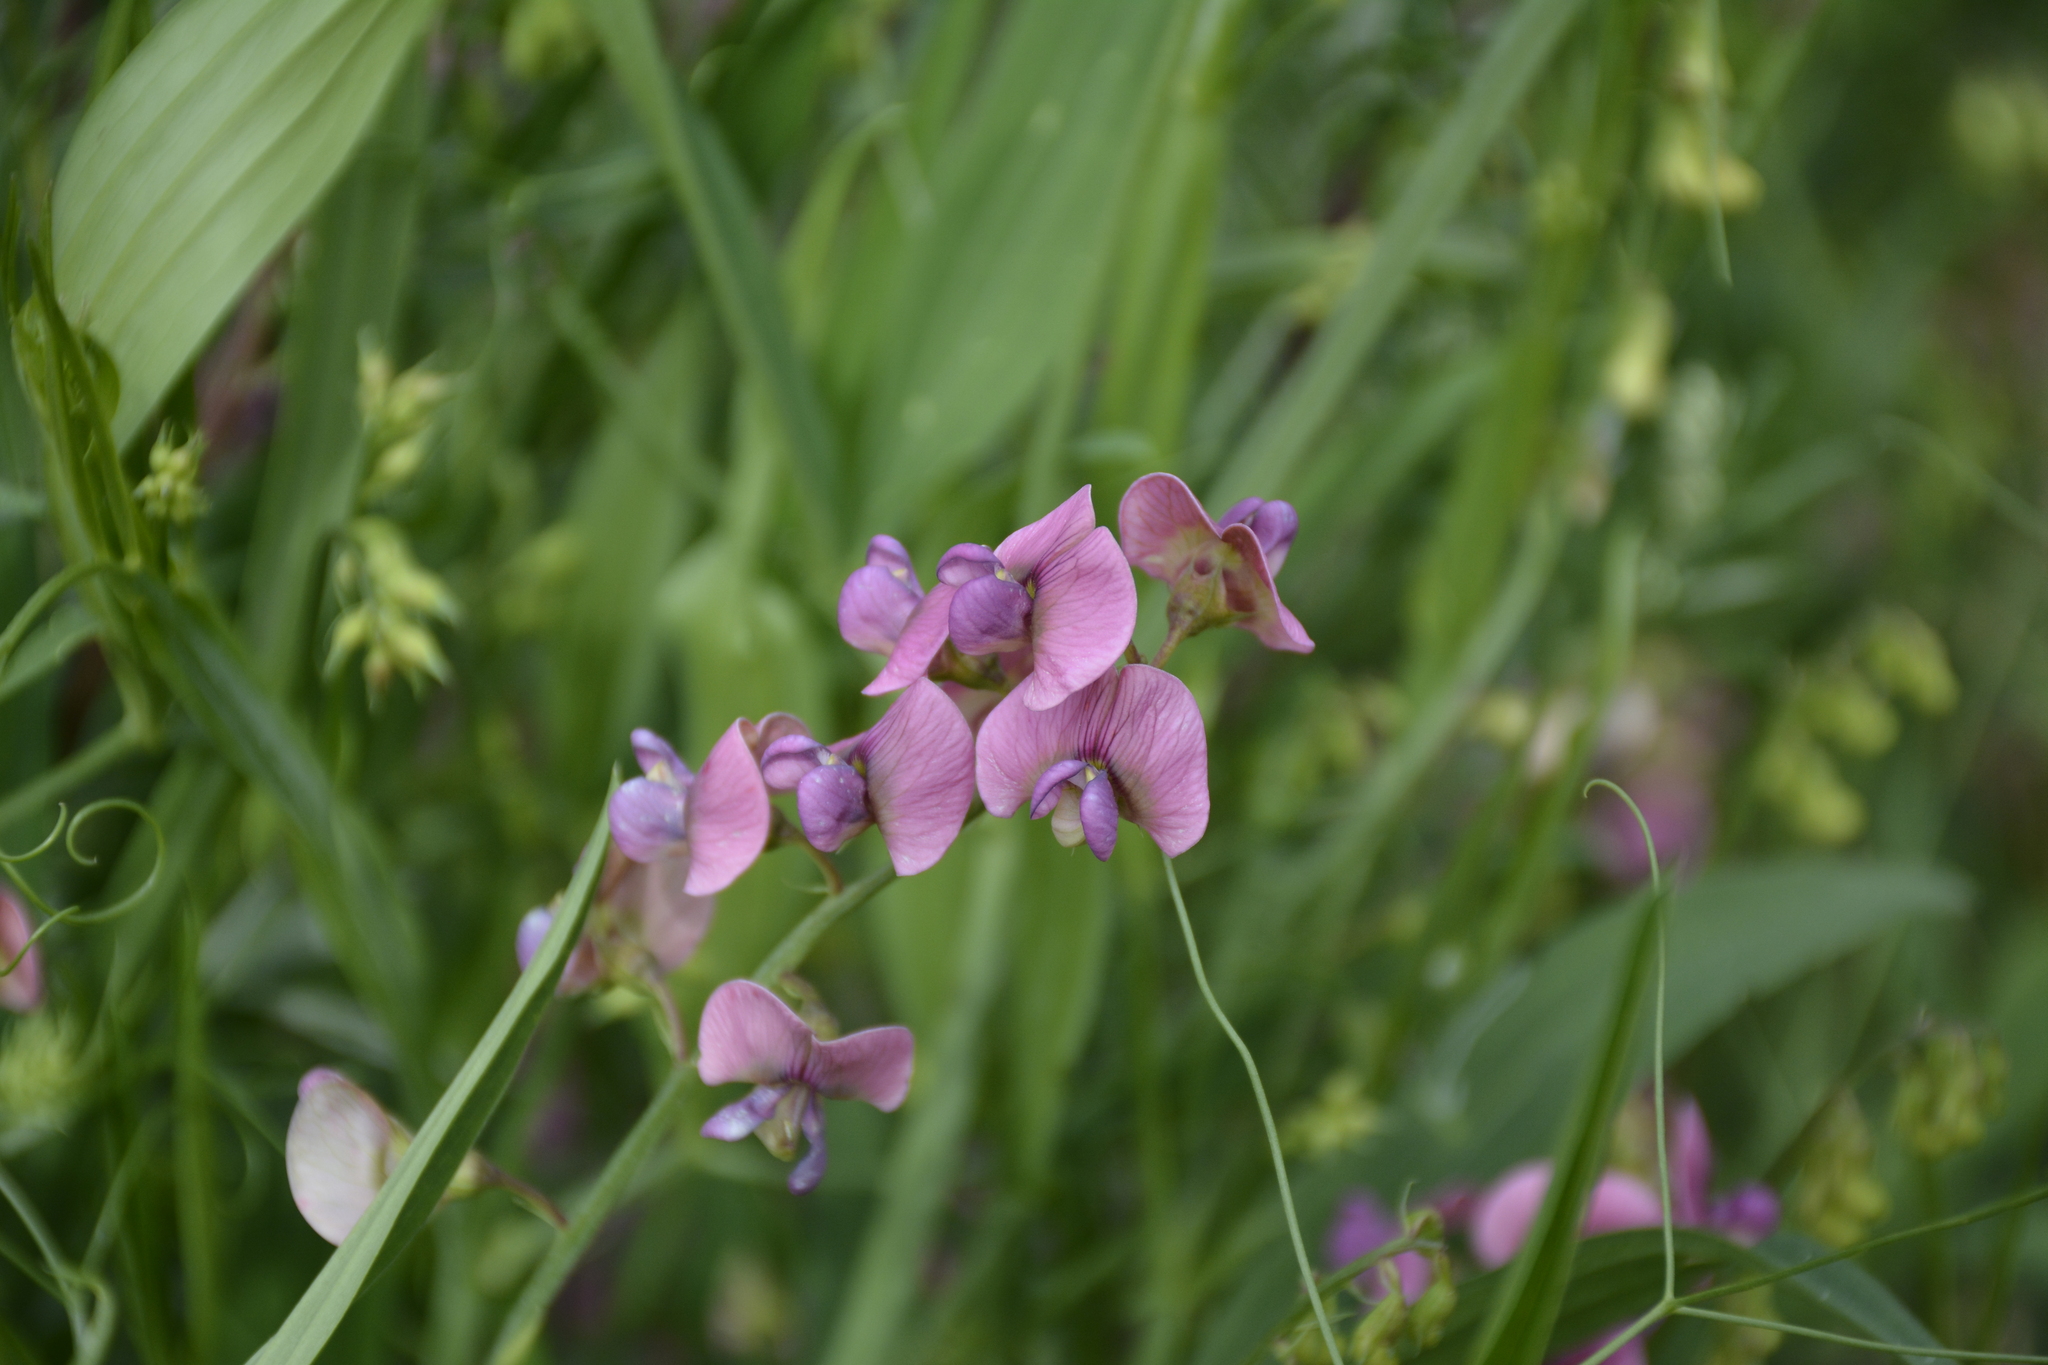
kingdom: Plantae
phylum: Tracheophyta
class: Magnoliopsida
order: Fabales
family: Fabaceae
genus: Lathyrus
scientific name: Lathyrus sylvestris
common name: Flat pea
